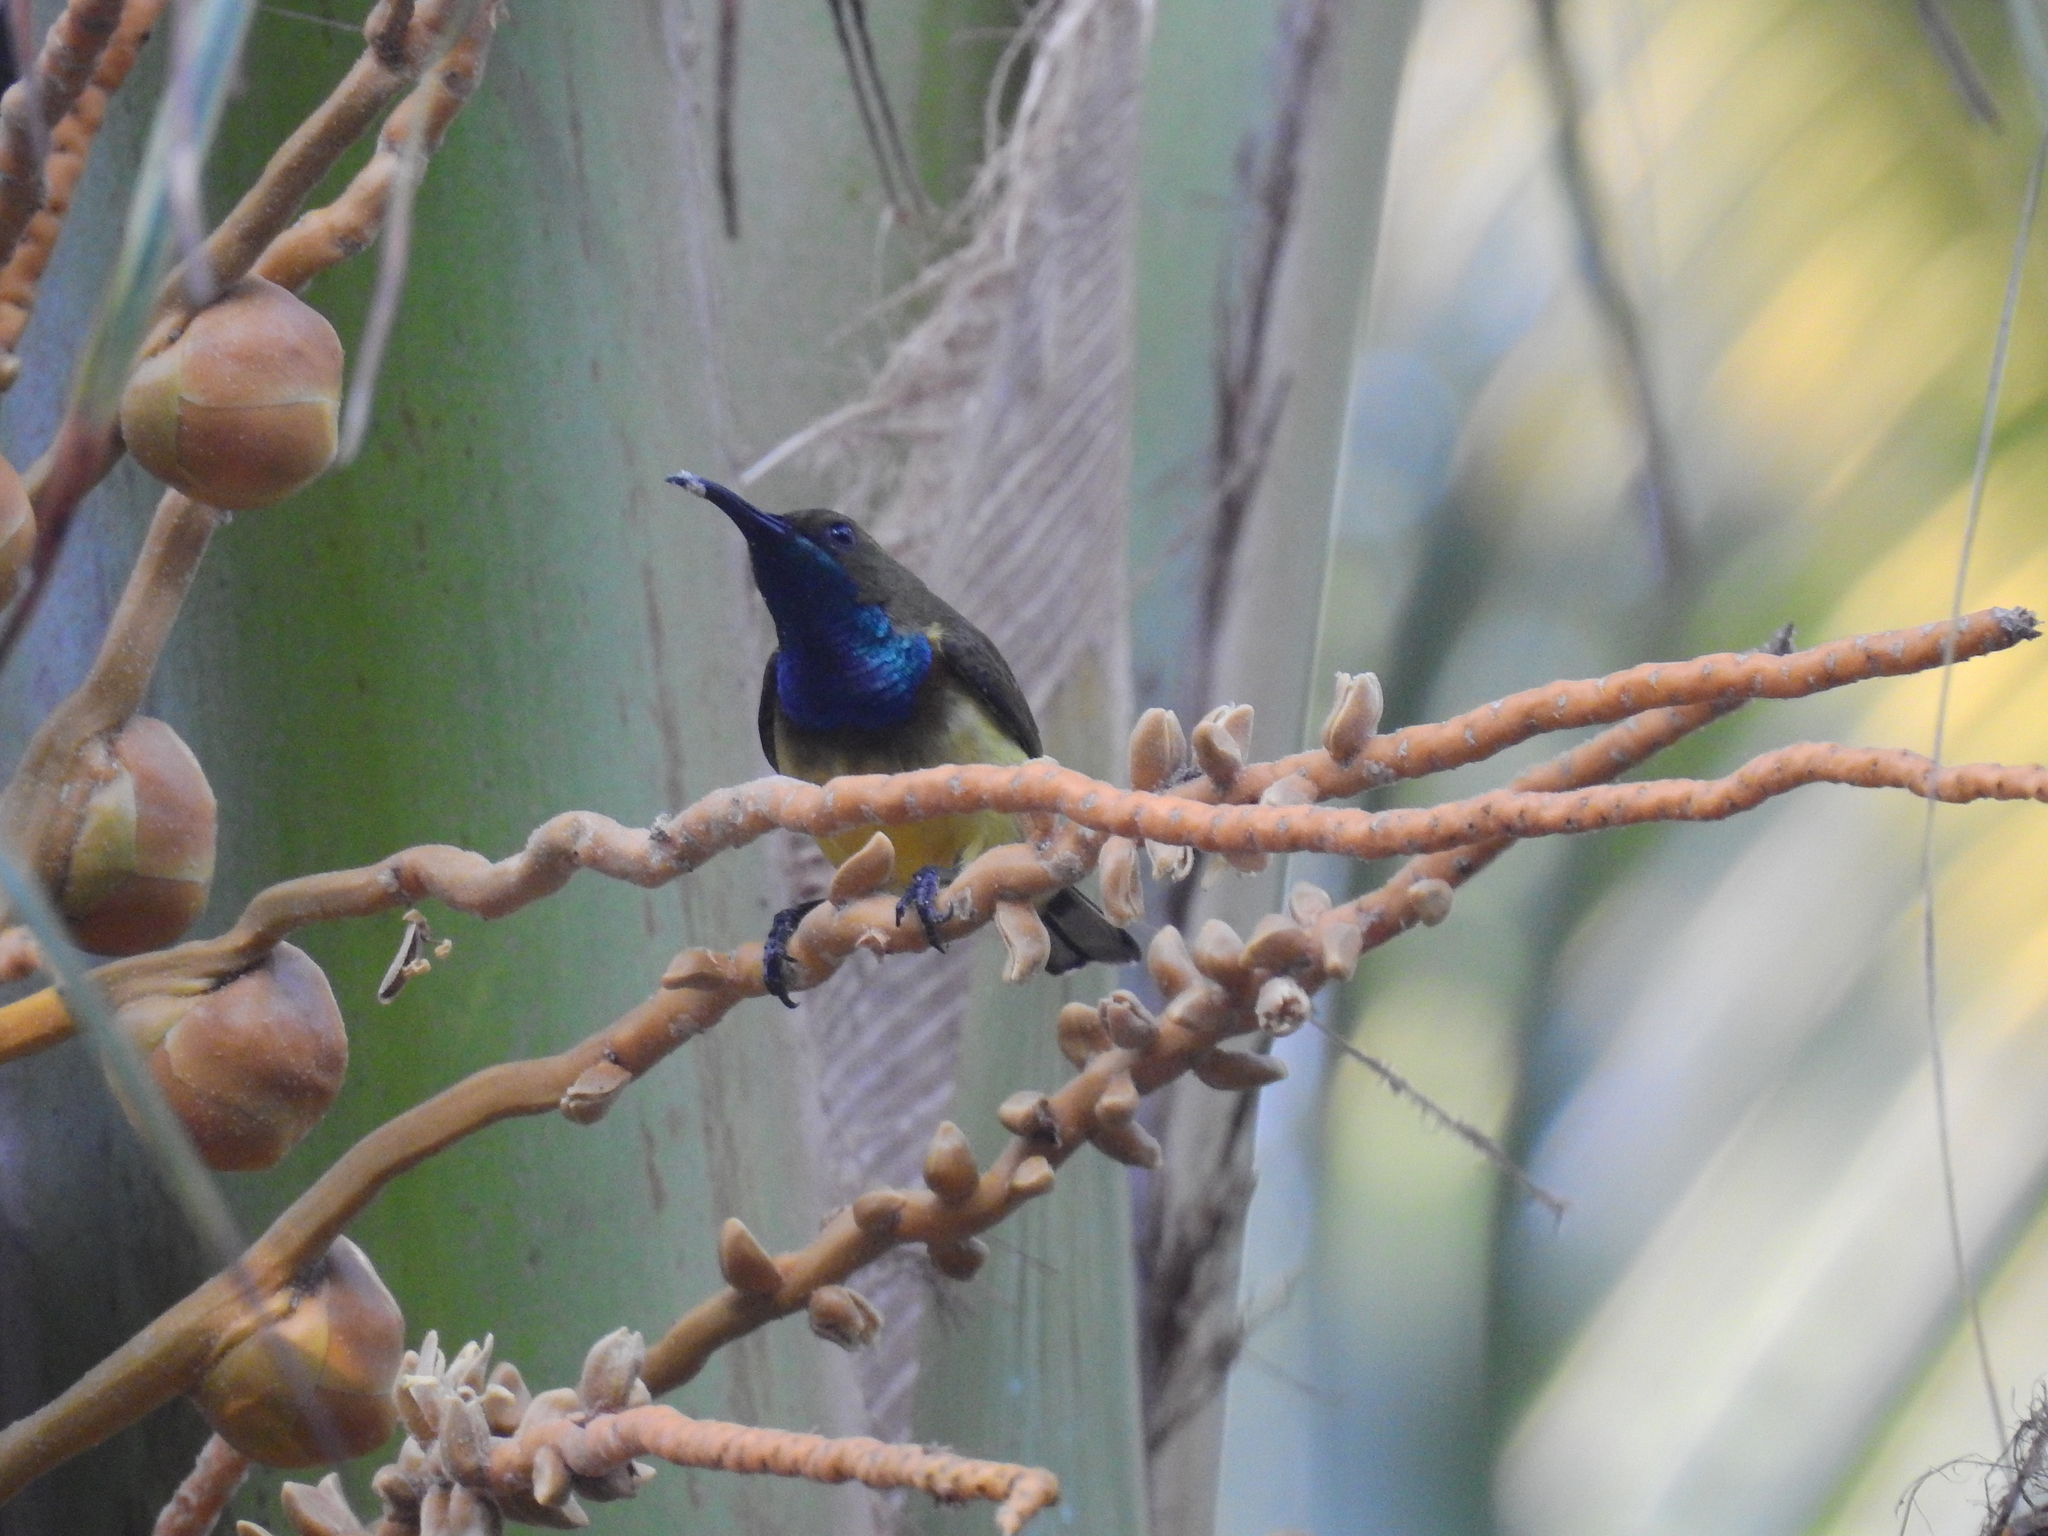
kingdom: Animalia
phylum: Chordata
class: Aves
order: Passeriformes
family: Nectariniidae
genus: Cinnyris
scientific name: Cinnyris
